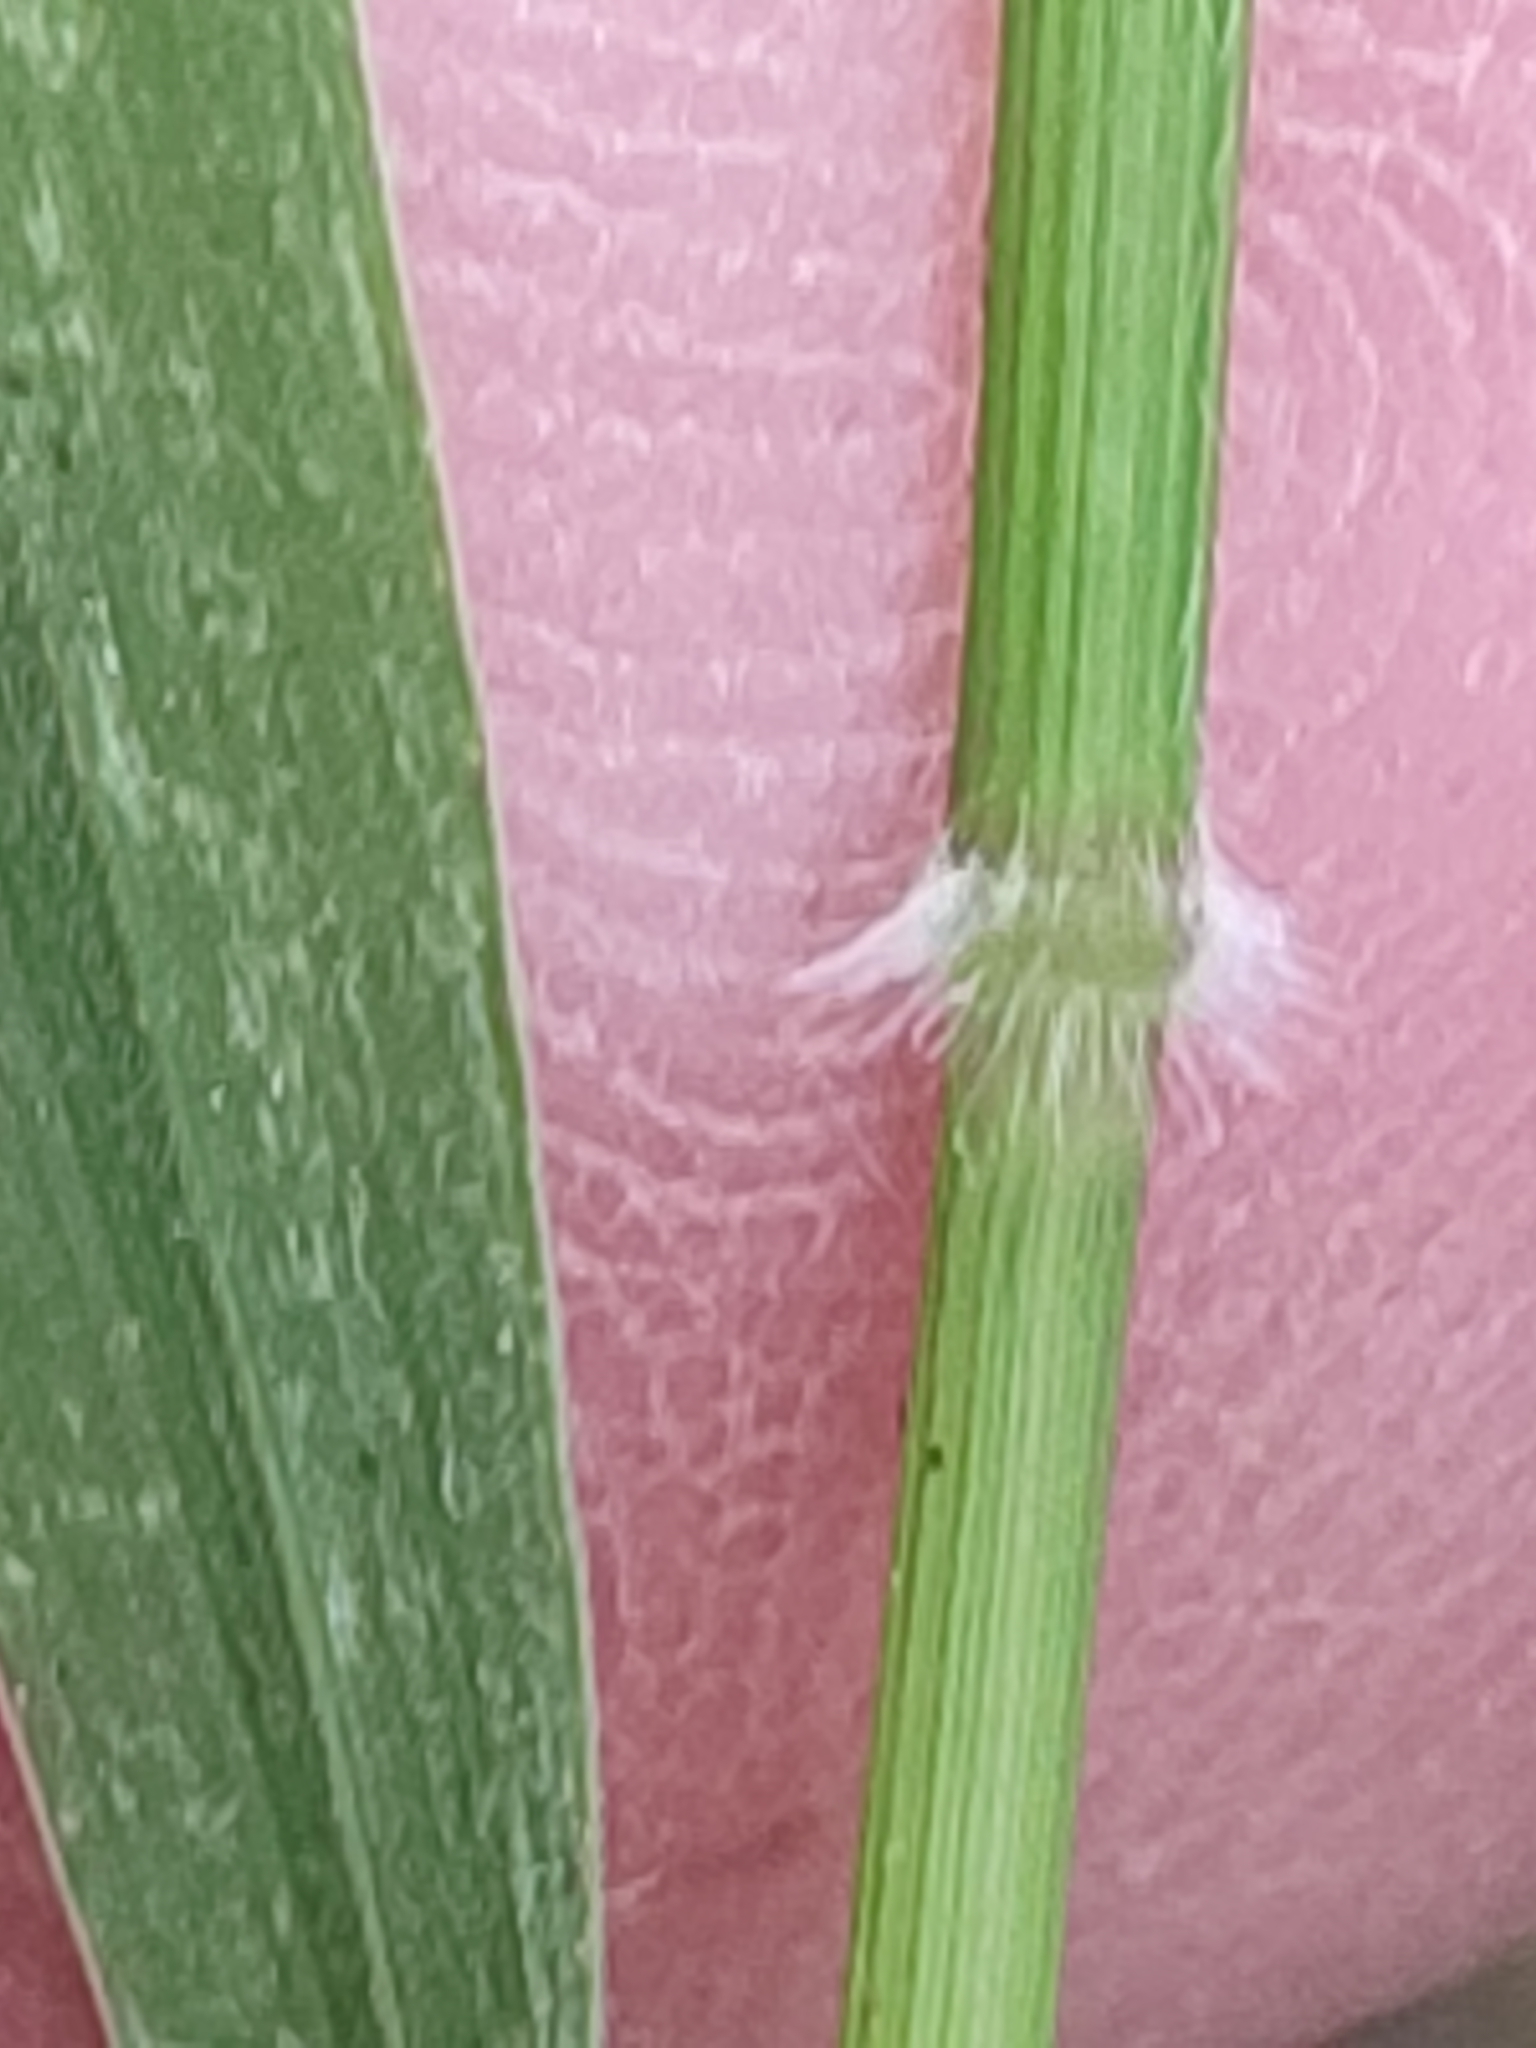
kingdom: Plantae
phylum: Tracheophyta
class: Liliopsida
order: Poales
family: Poaceae
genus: Holcus
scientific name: Holcus mollis
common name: Creeping velvetgrass
